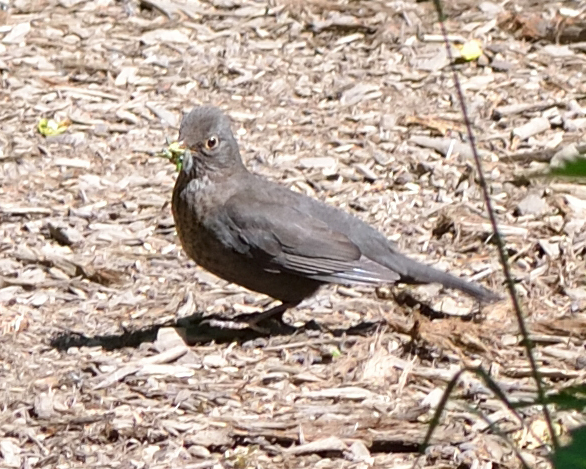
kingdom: Animalia
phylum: Chordata
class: Aves
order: Passeriformes
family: Turdidae
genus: Turdus
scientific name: Turdus merula
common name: Common blackbird
